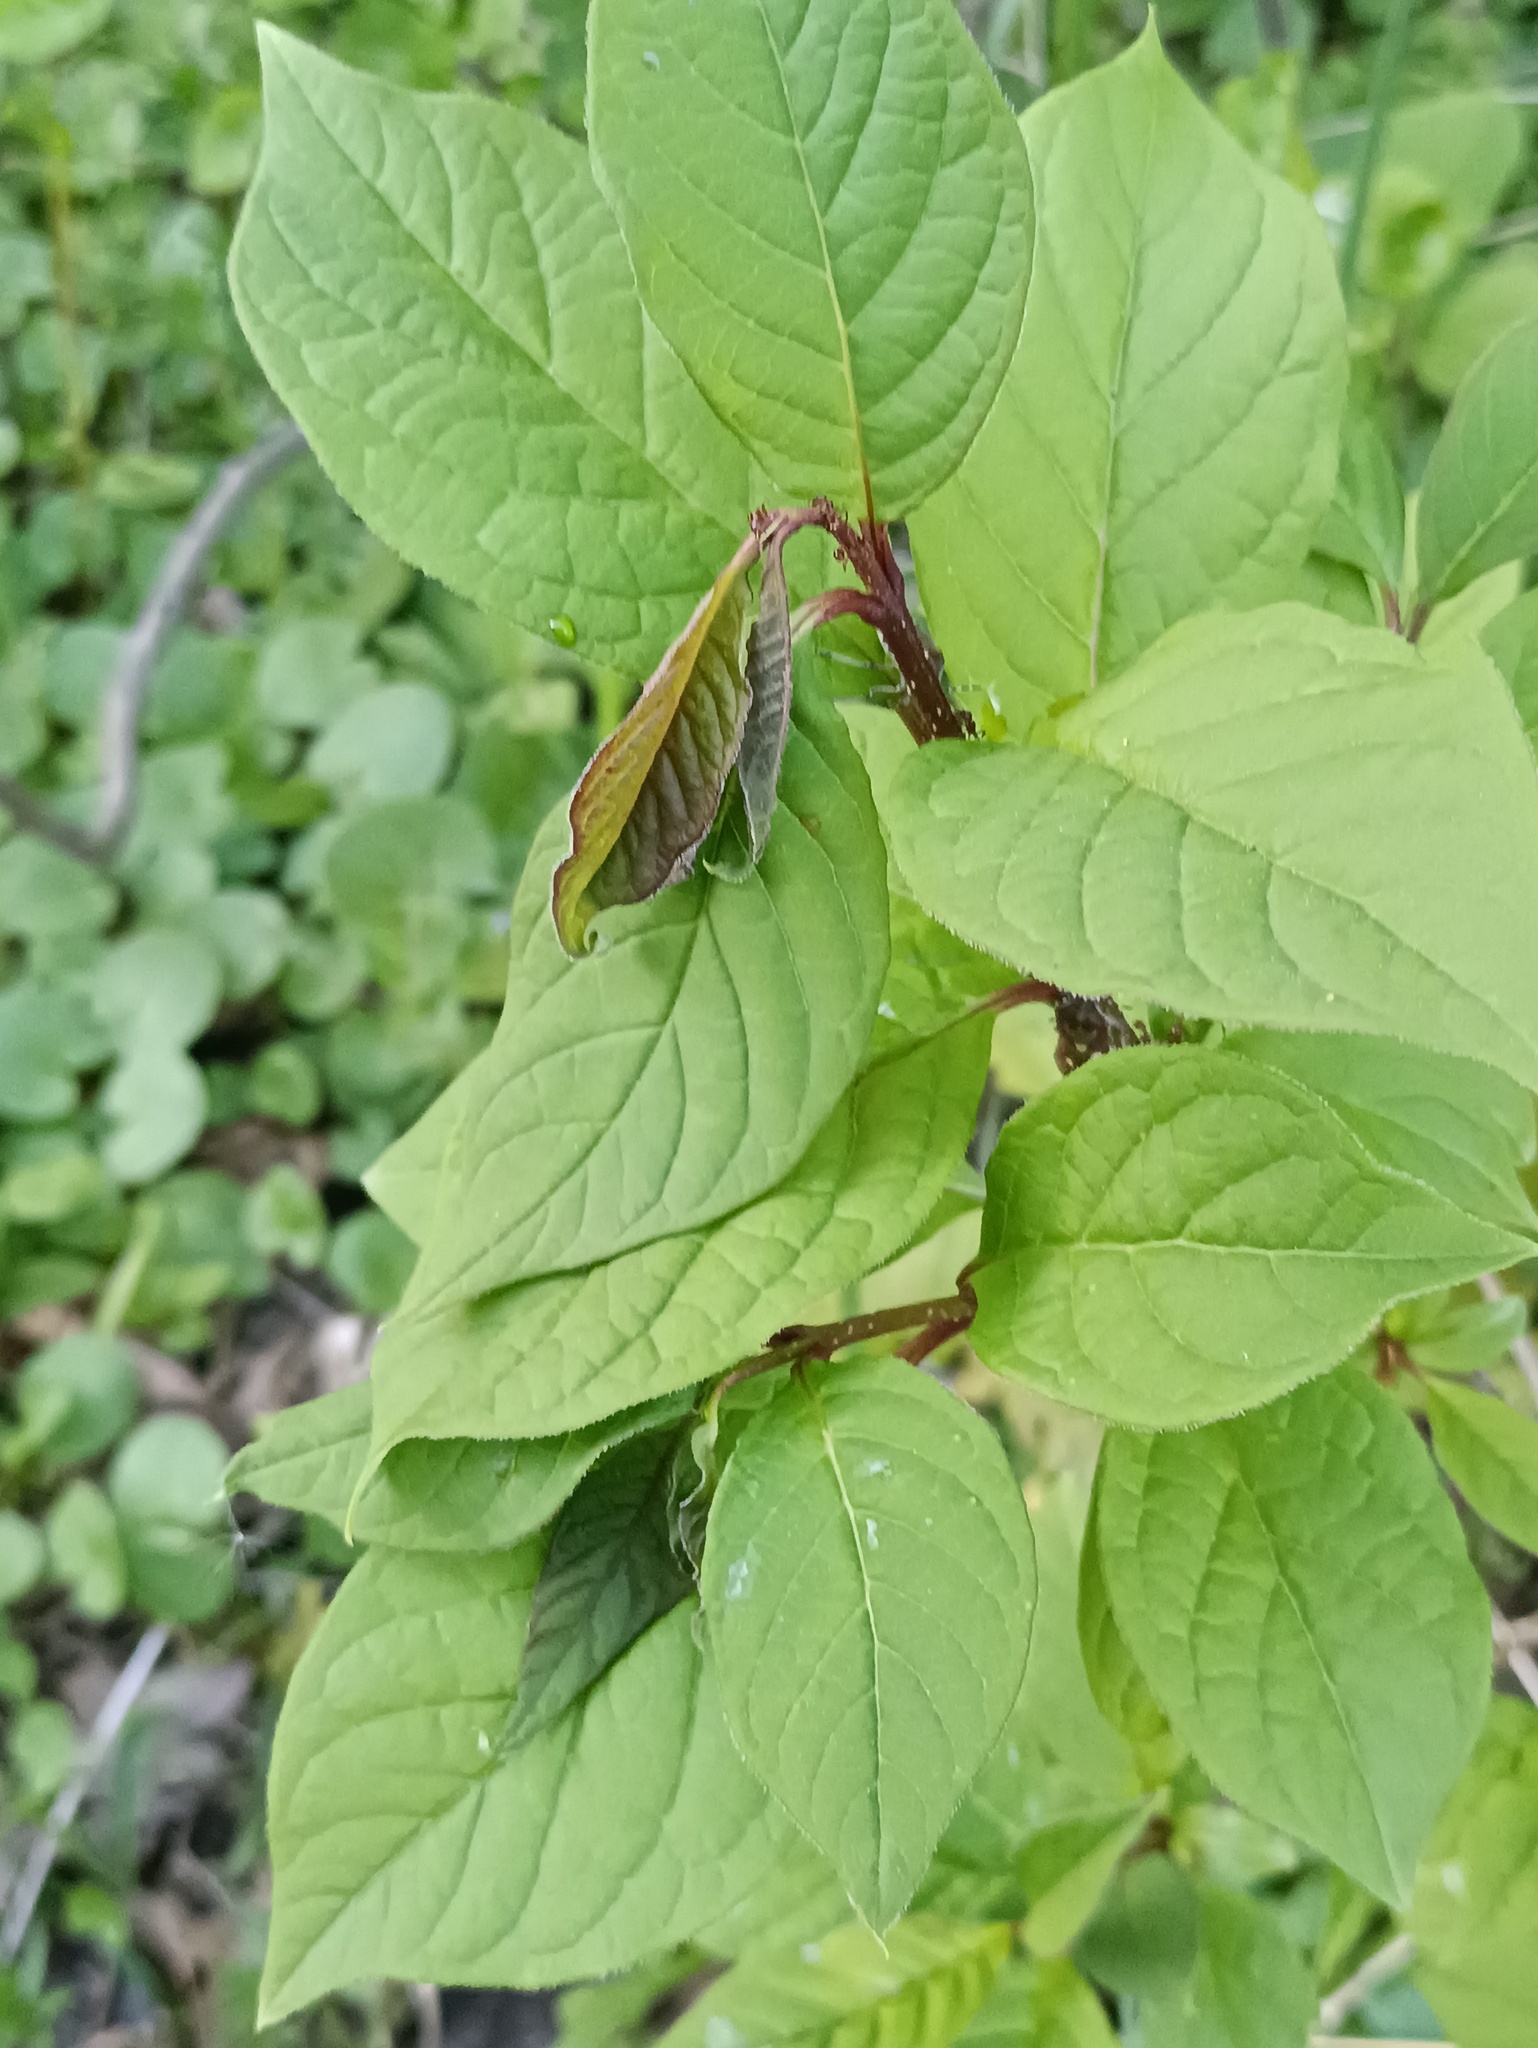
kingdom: Plantae
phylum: Tracheophyta
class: Magnoliopsida
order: Rosales
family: Rosaceae
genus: Prunus
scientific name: Prunus padus
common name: Bird cherry
